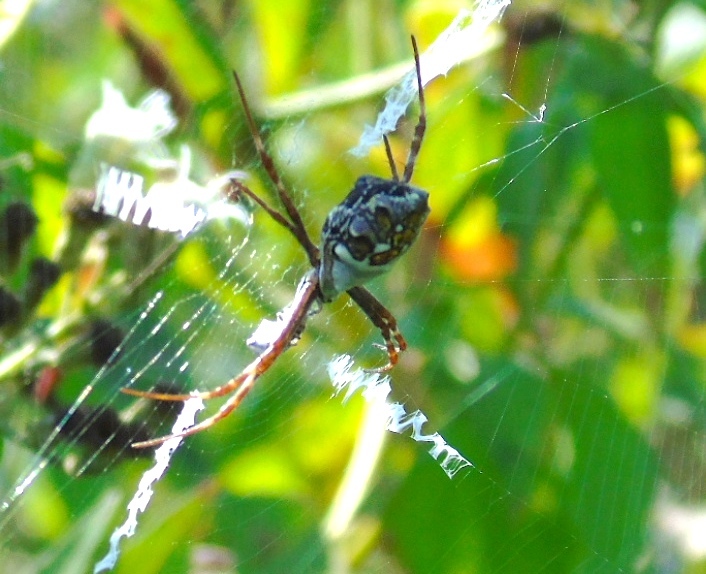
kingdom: Animalia
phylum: Arthropoda
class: Arachnida
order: Araneae
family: Araneidae
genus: Argiope
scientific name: Argiope argentata
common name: Orb weavers
